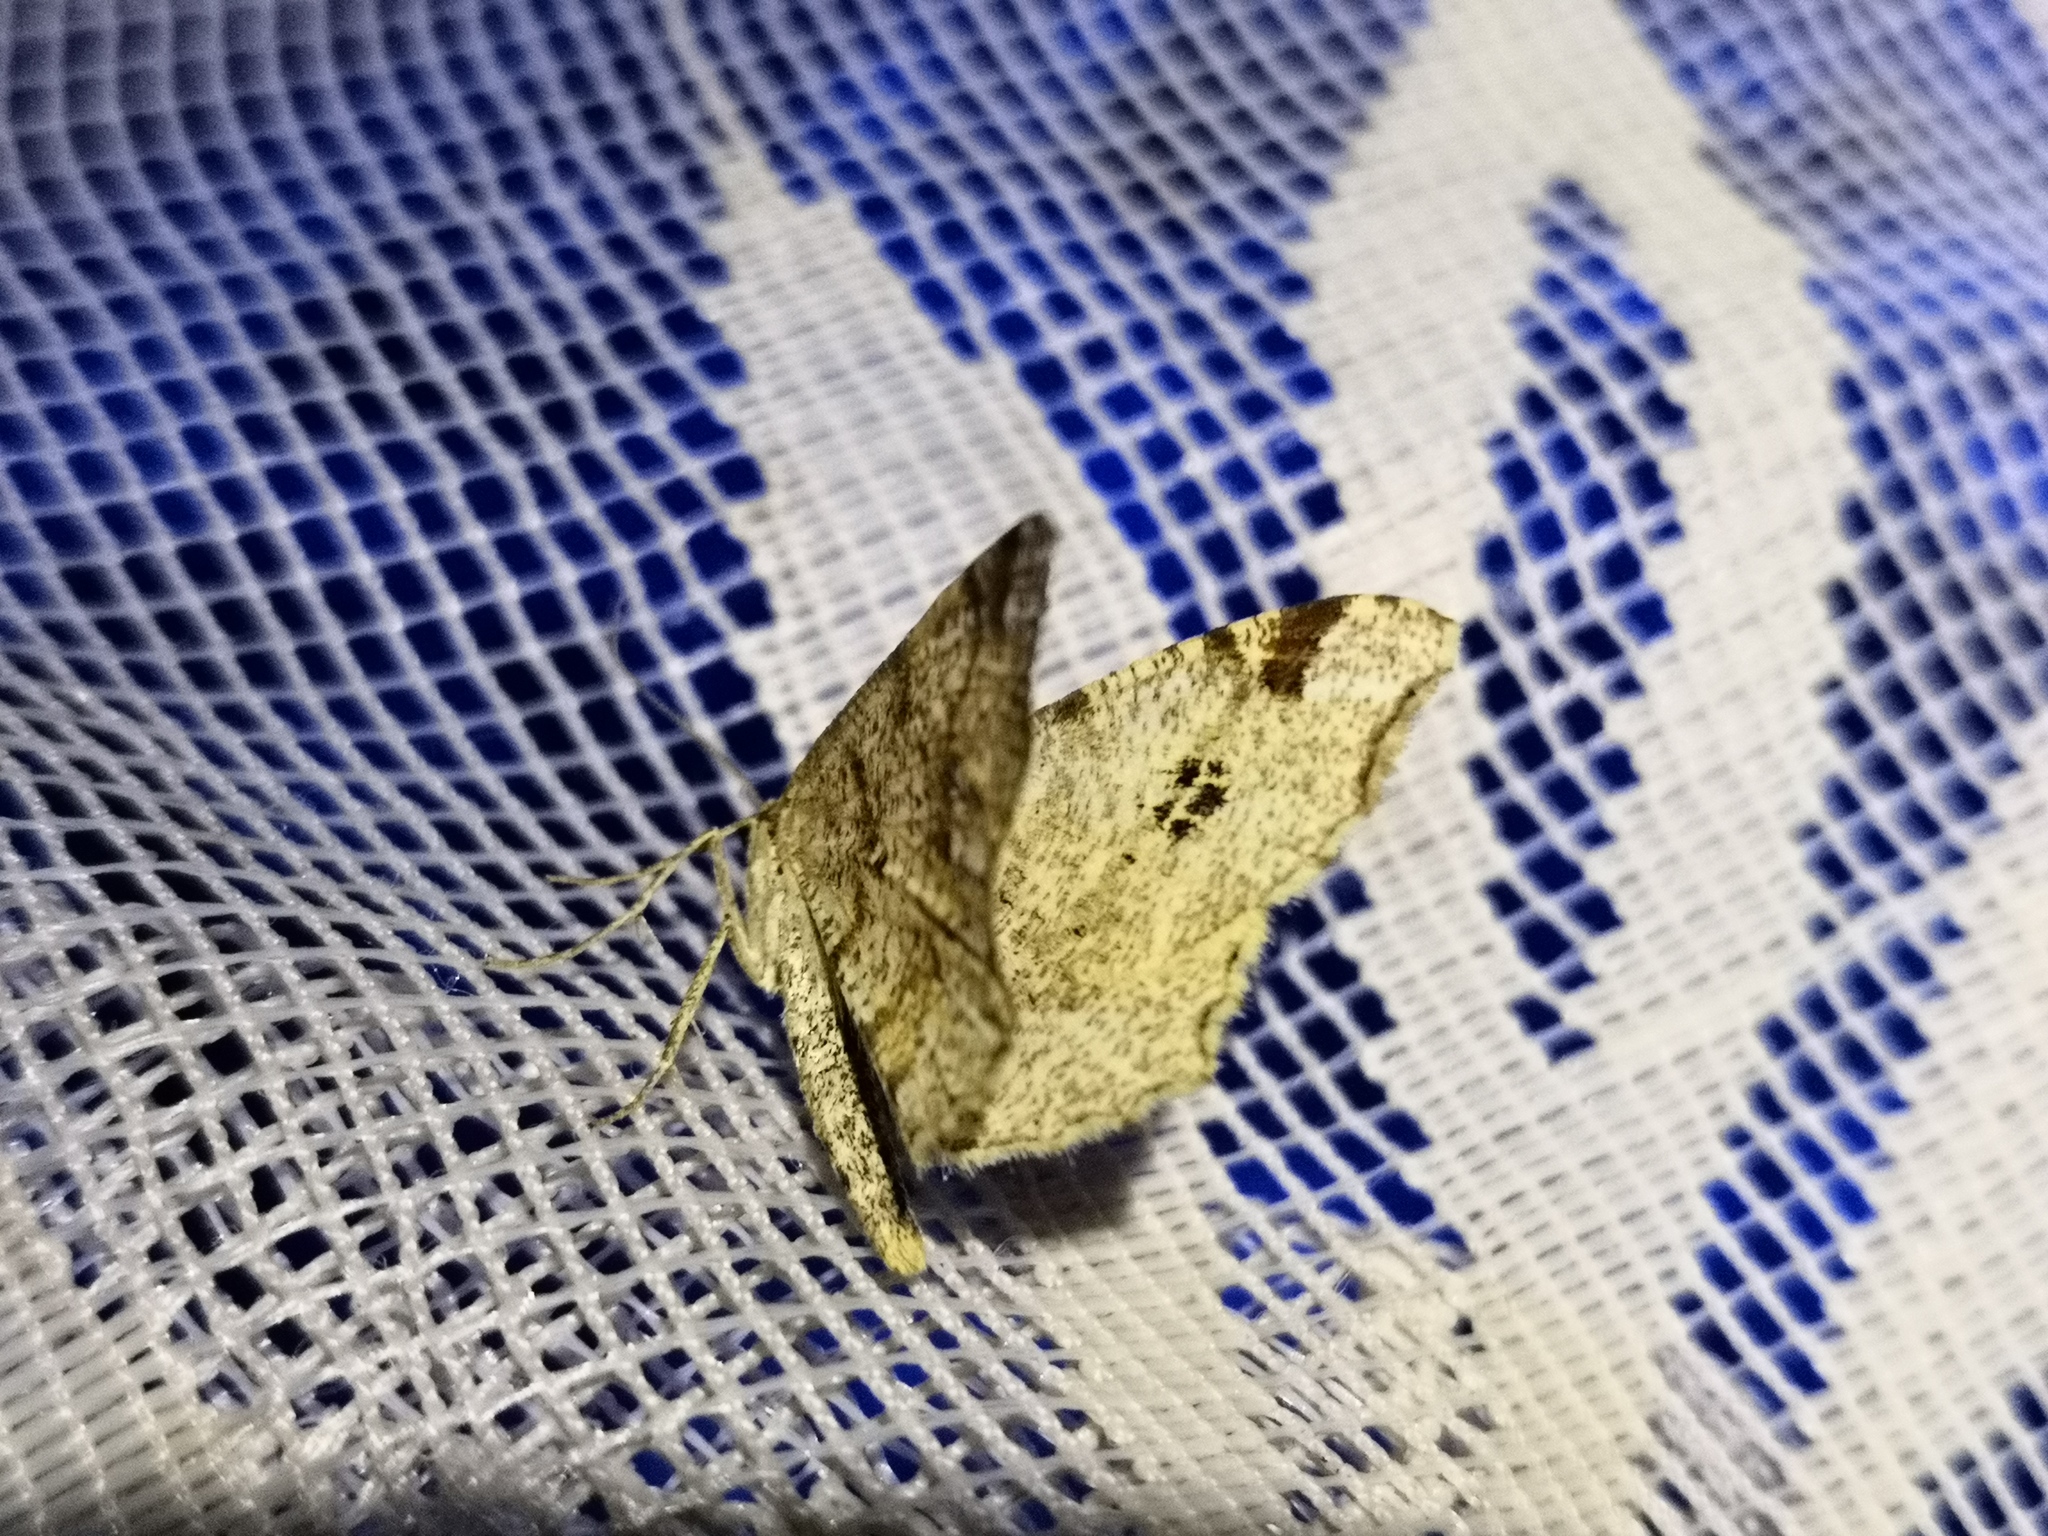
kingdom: Animalia
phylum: Arthropoda
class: Insecta
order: Lepidoptera
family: Geometridae
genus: Macaria
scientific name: Macaria notata
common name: Peacock moth
